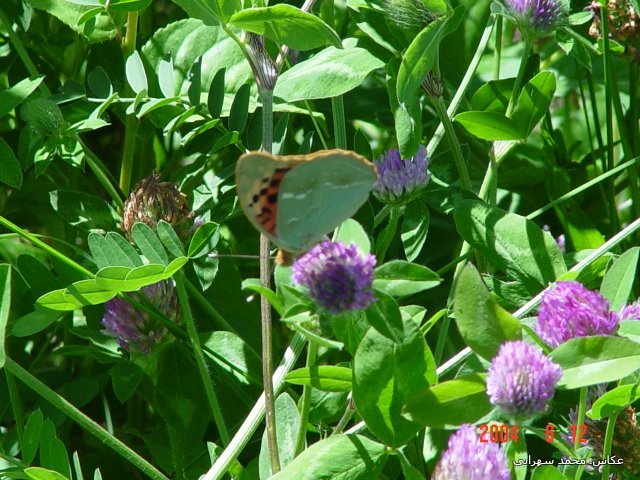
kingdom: Animalia
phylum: Arthropoda
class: Insecta
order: Lepidoptera
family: Nymphalidae
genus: Damora
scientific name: Damora pandora
